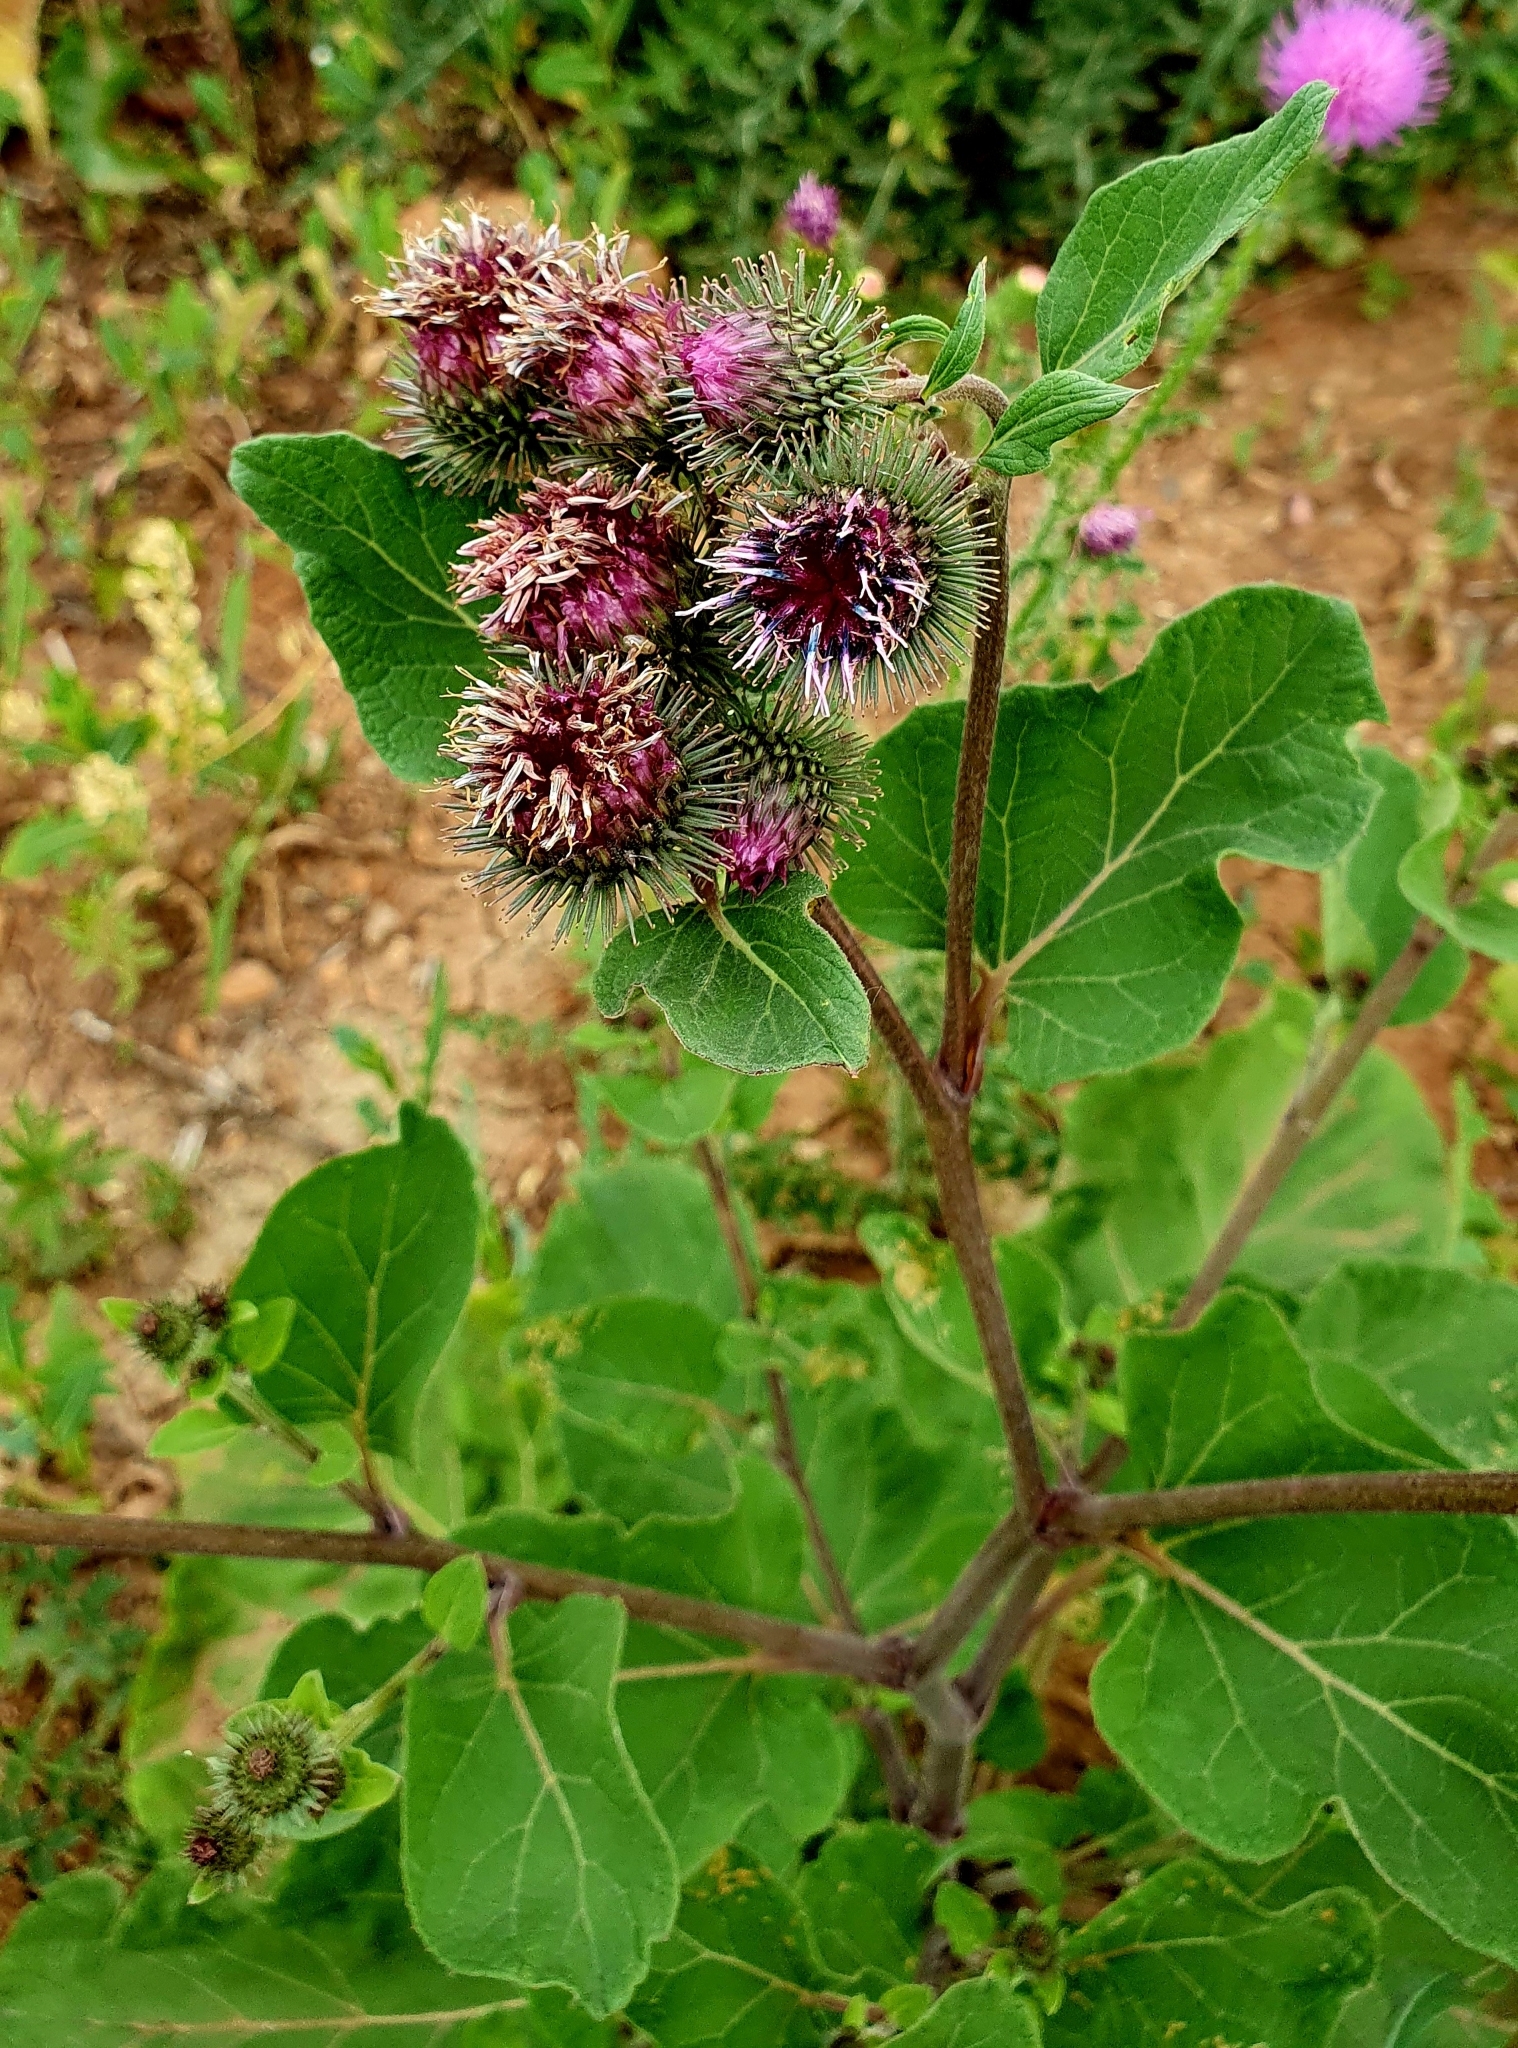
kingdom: Plantae
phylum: Tracheophyta
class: Magnoliopsida
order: Asterales
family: Asteraceae
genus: Arctium
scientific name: Arctium lappa
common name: Greater burdock
